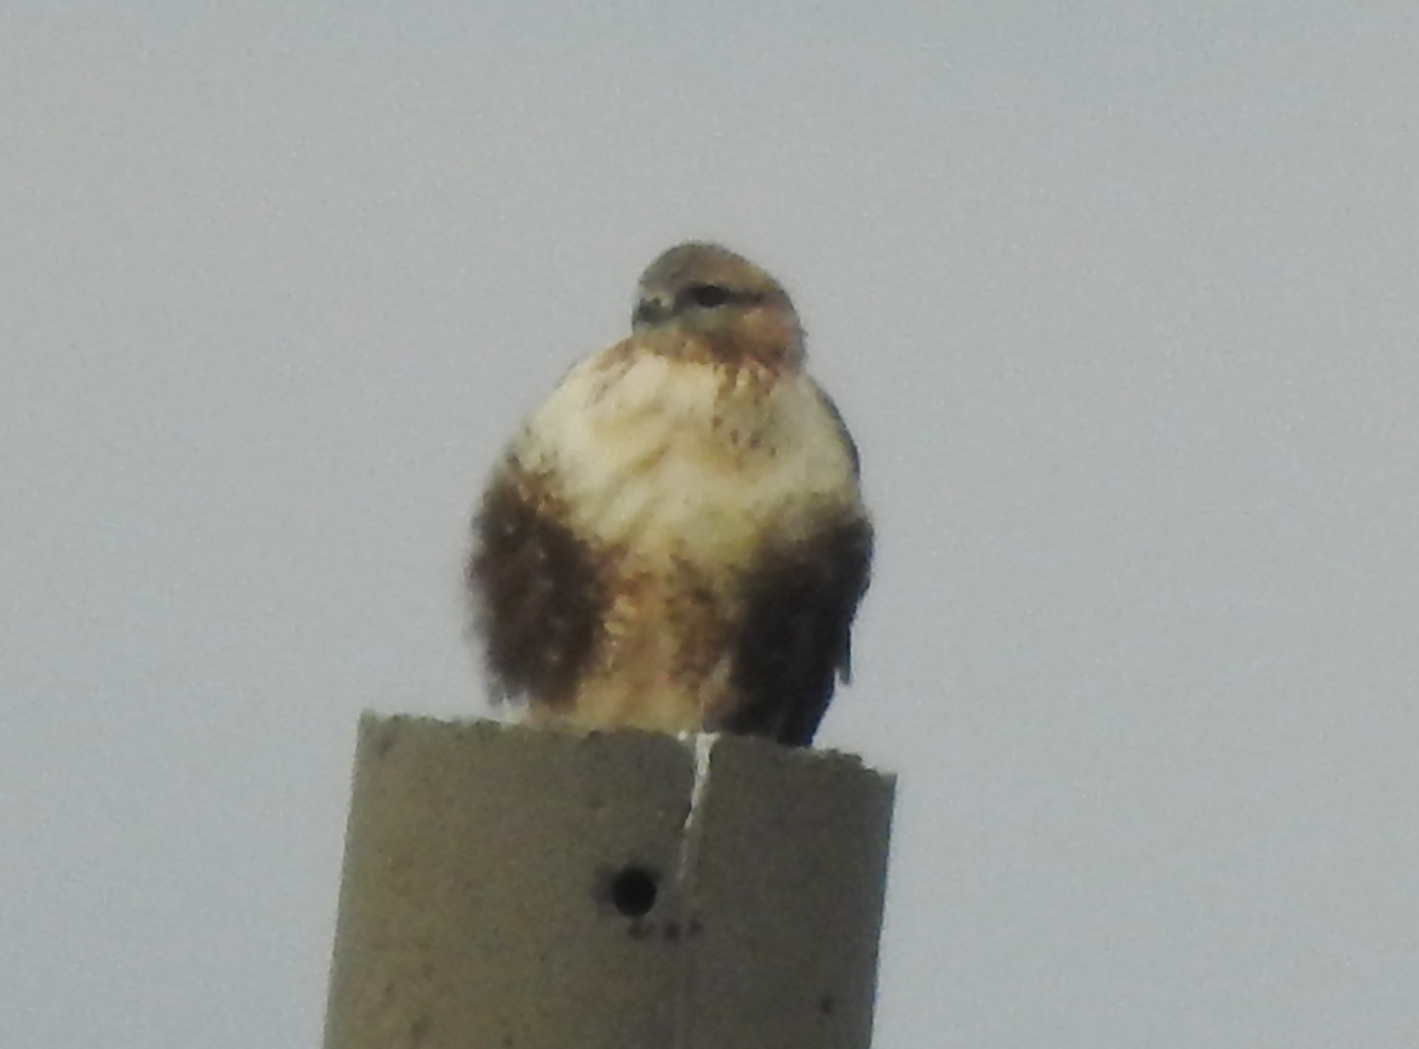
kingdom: Animalia
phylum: Chordata
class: Aves
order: Accipitriformes
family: Accipitridae
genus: Buteo
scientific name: Buteo hemilasius
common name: Upland buzzard
